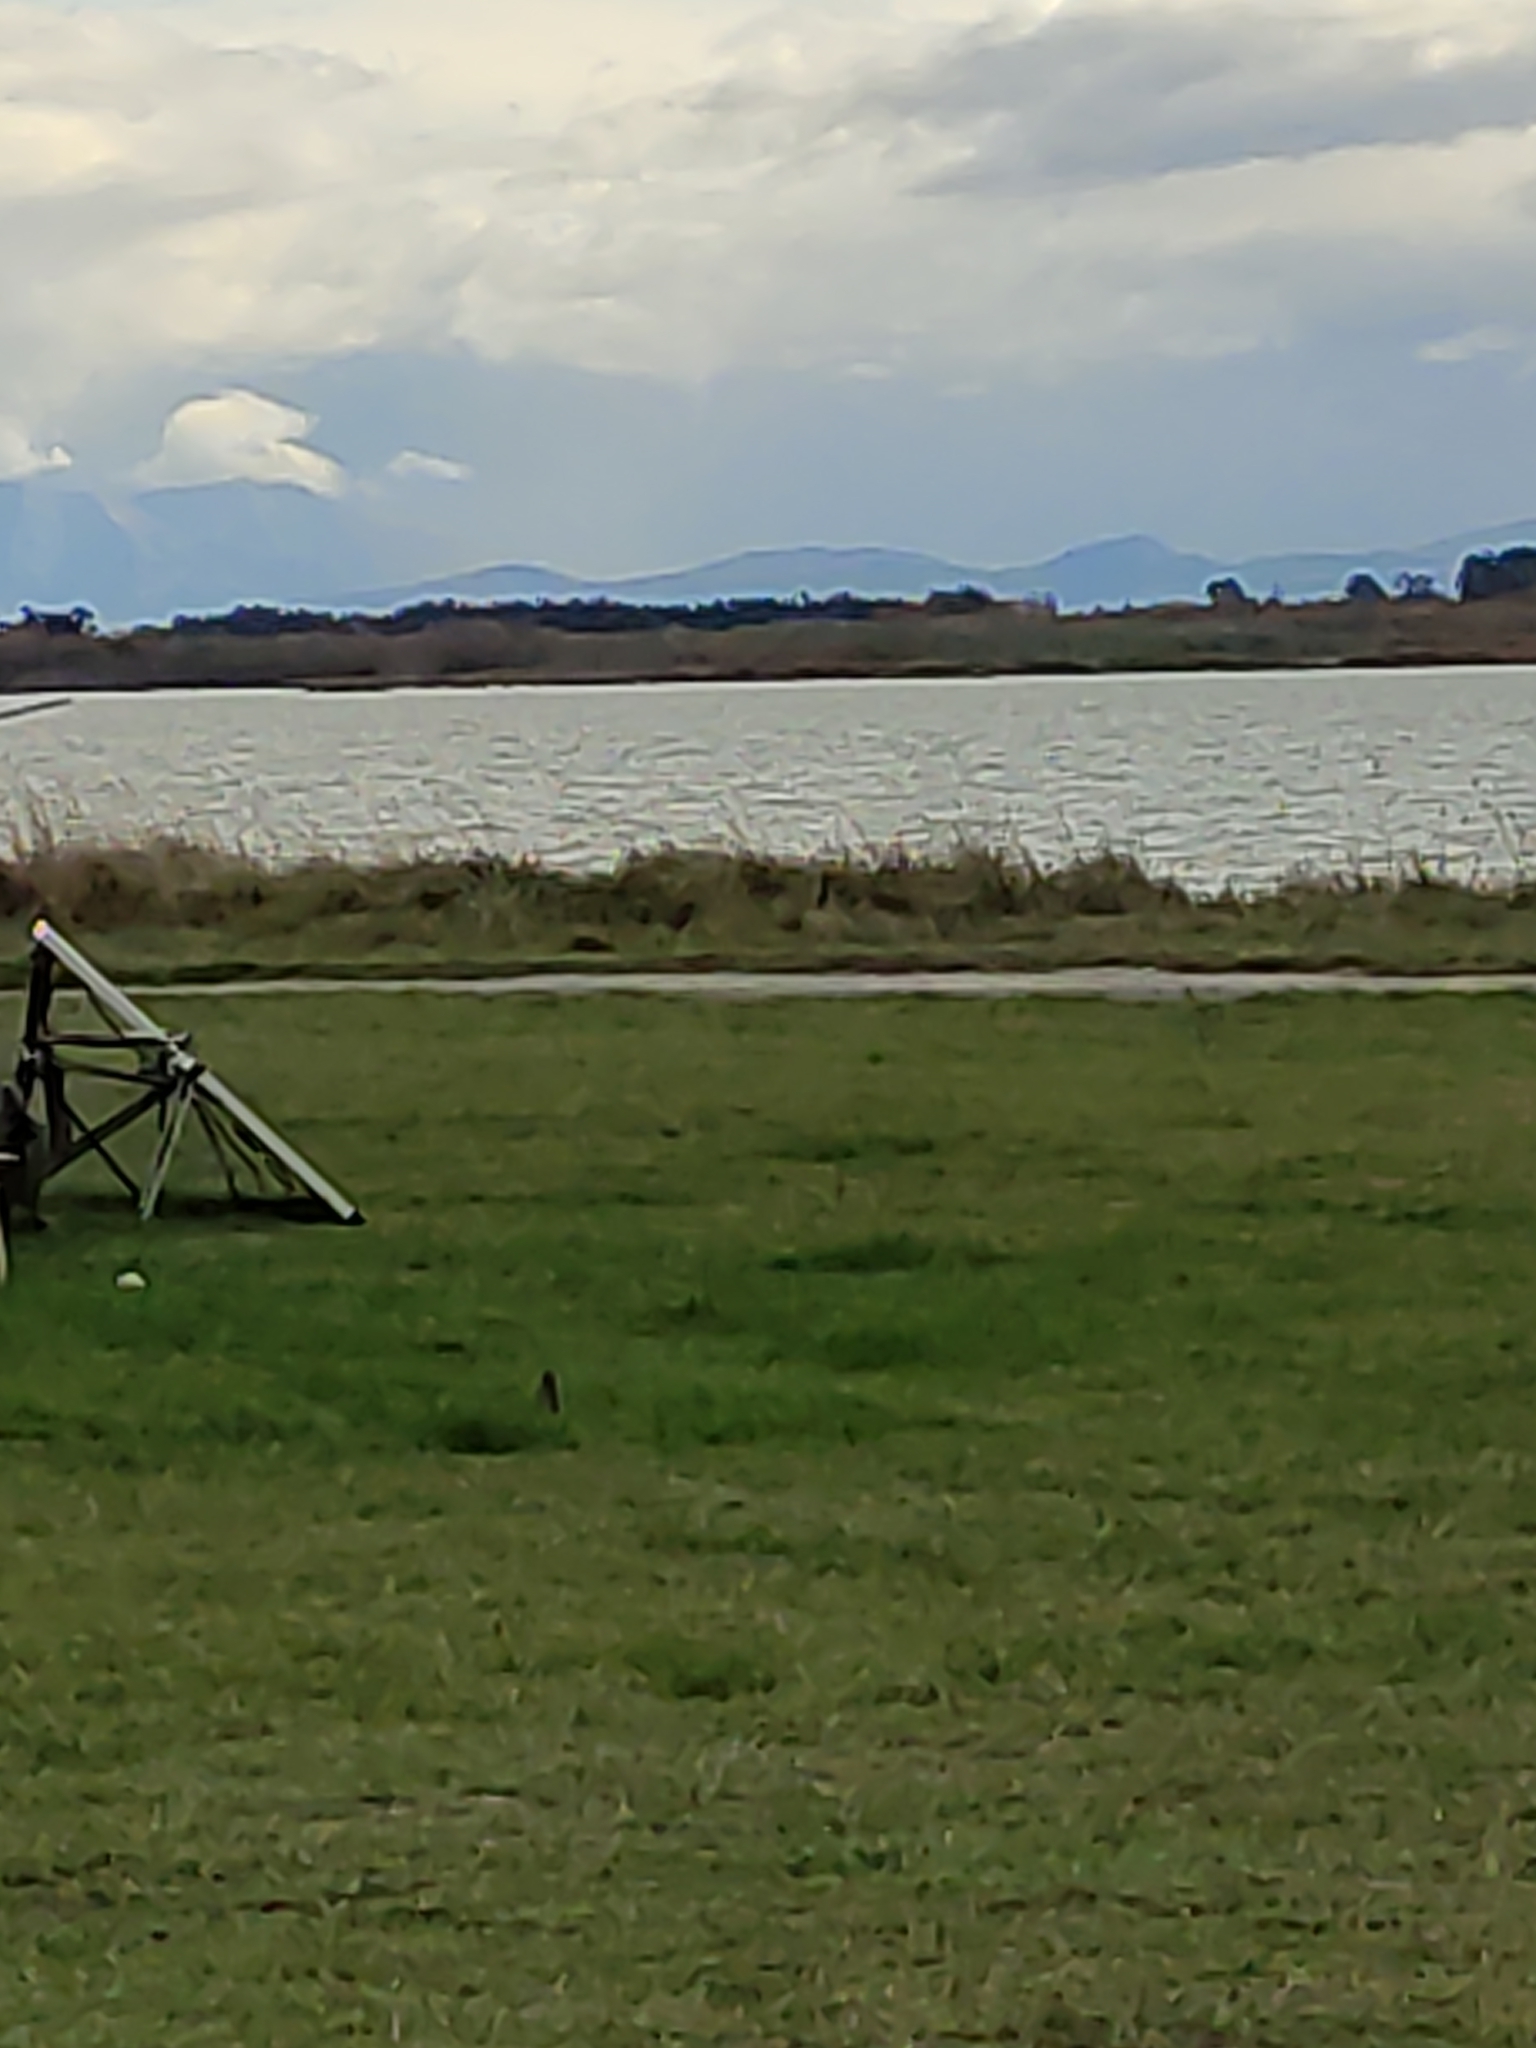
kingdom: Animalia
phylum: Chordata
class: Aves
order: Passeriformes
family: Sturnidae
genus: Sturnus
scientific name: Sturnus vulgaris
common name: Common starling
